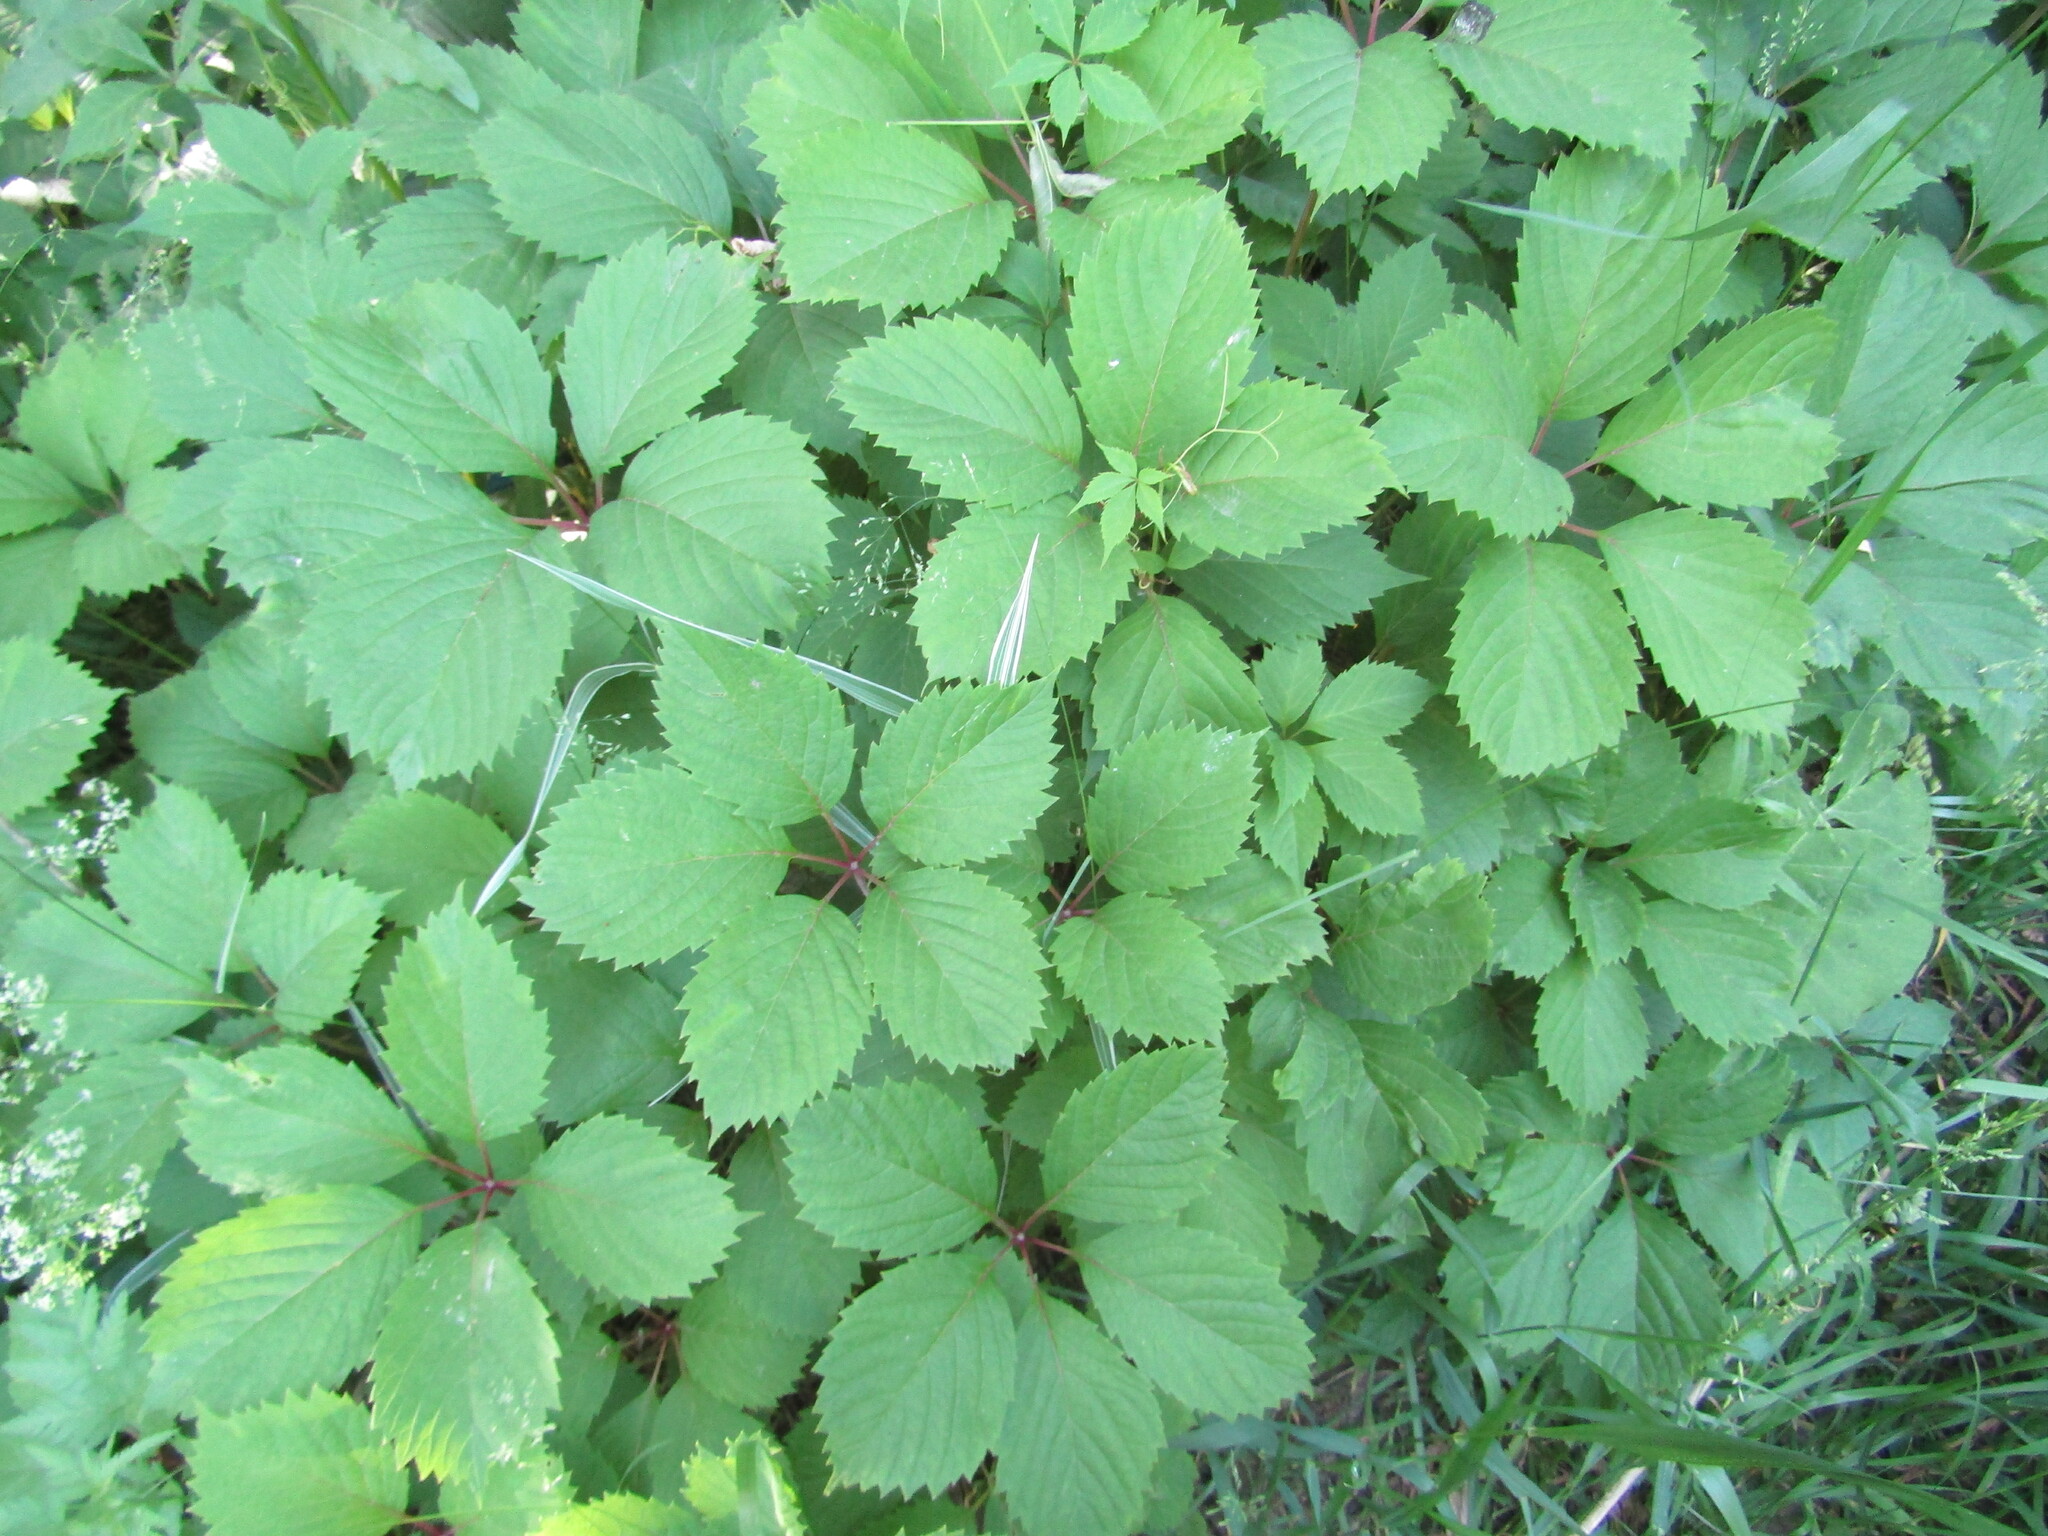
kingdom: Plantae
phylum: Tracheophyta
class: Magnoliopsida
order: Vitales
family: Vitaceae
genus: Parthenocissus
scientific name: Parthenocissus inserta
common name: False virginia-creeper
